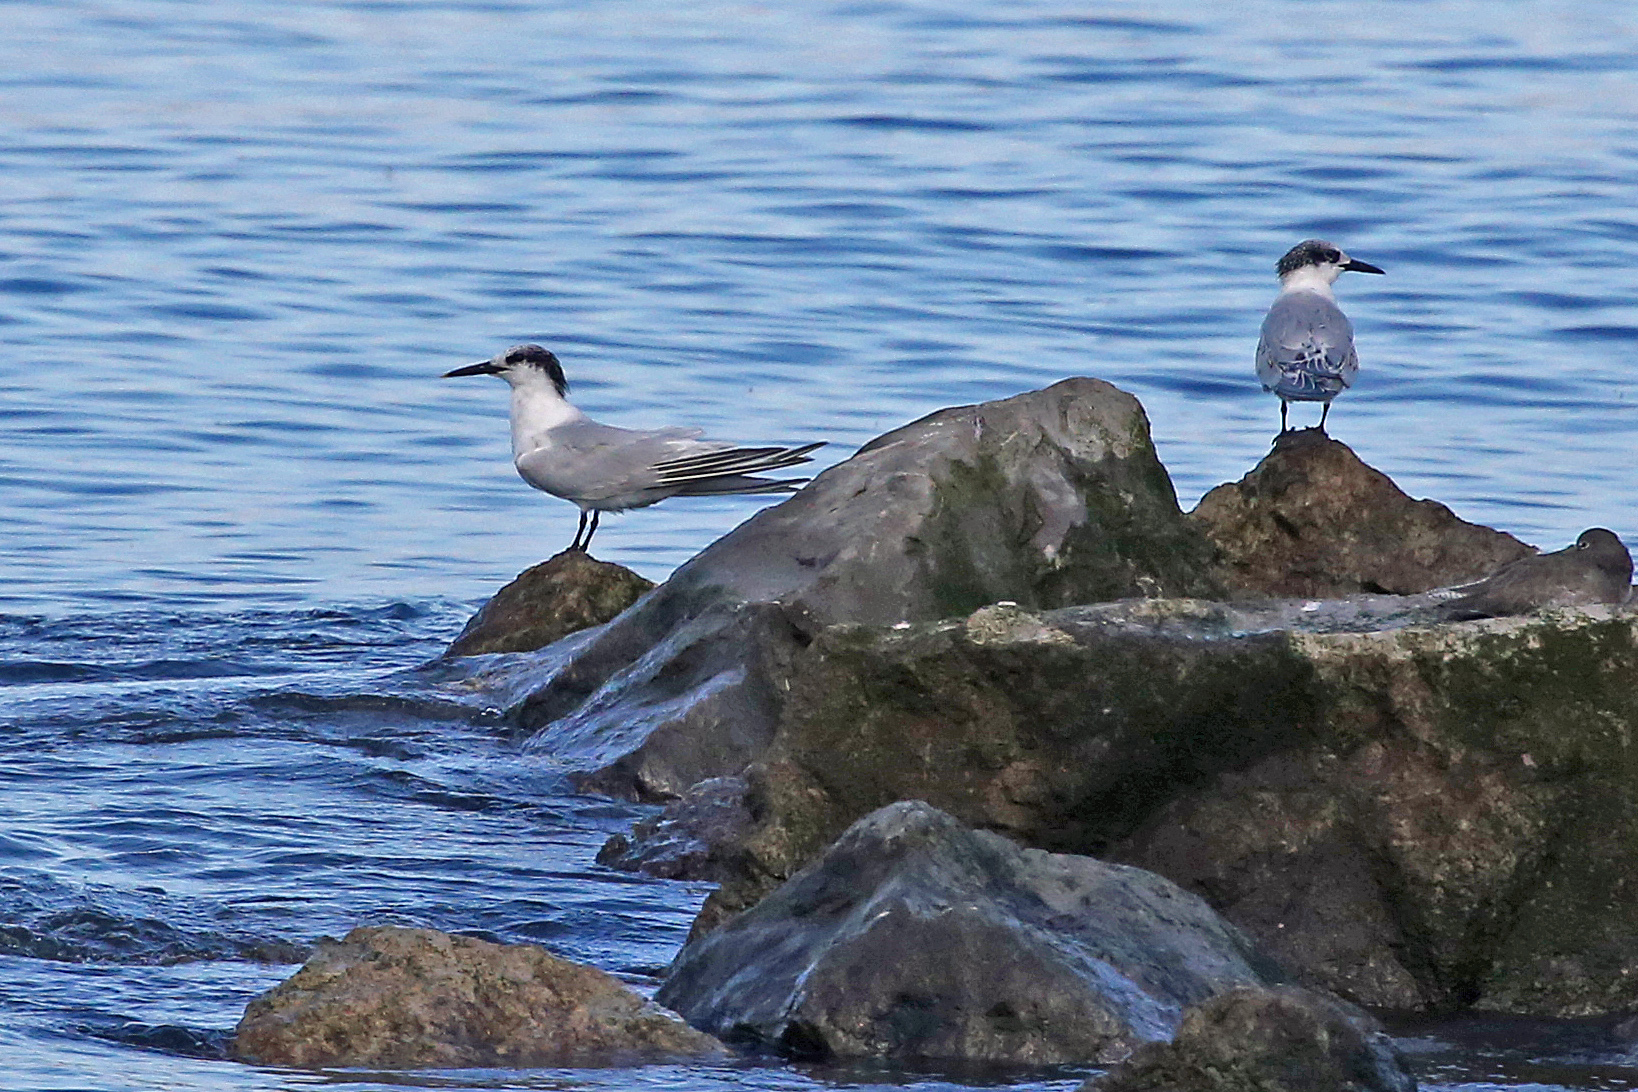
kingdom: Animalia
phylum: Chordata
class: Aves
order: Charadriiformes
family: Laridae
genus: Thalasseus
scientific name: Thalasseus sandvicensis
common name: Sandwich tern
